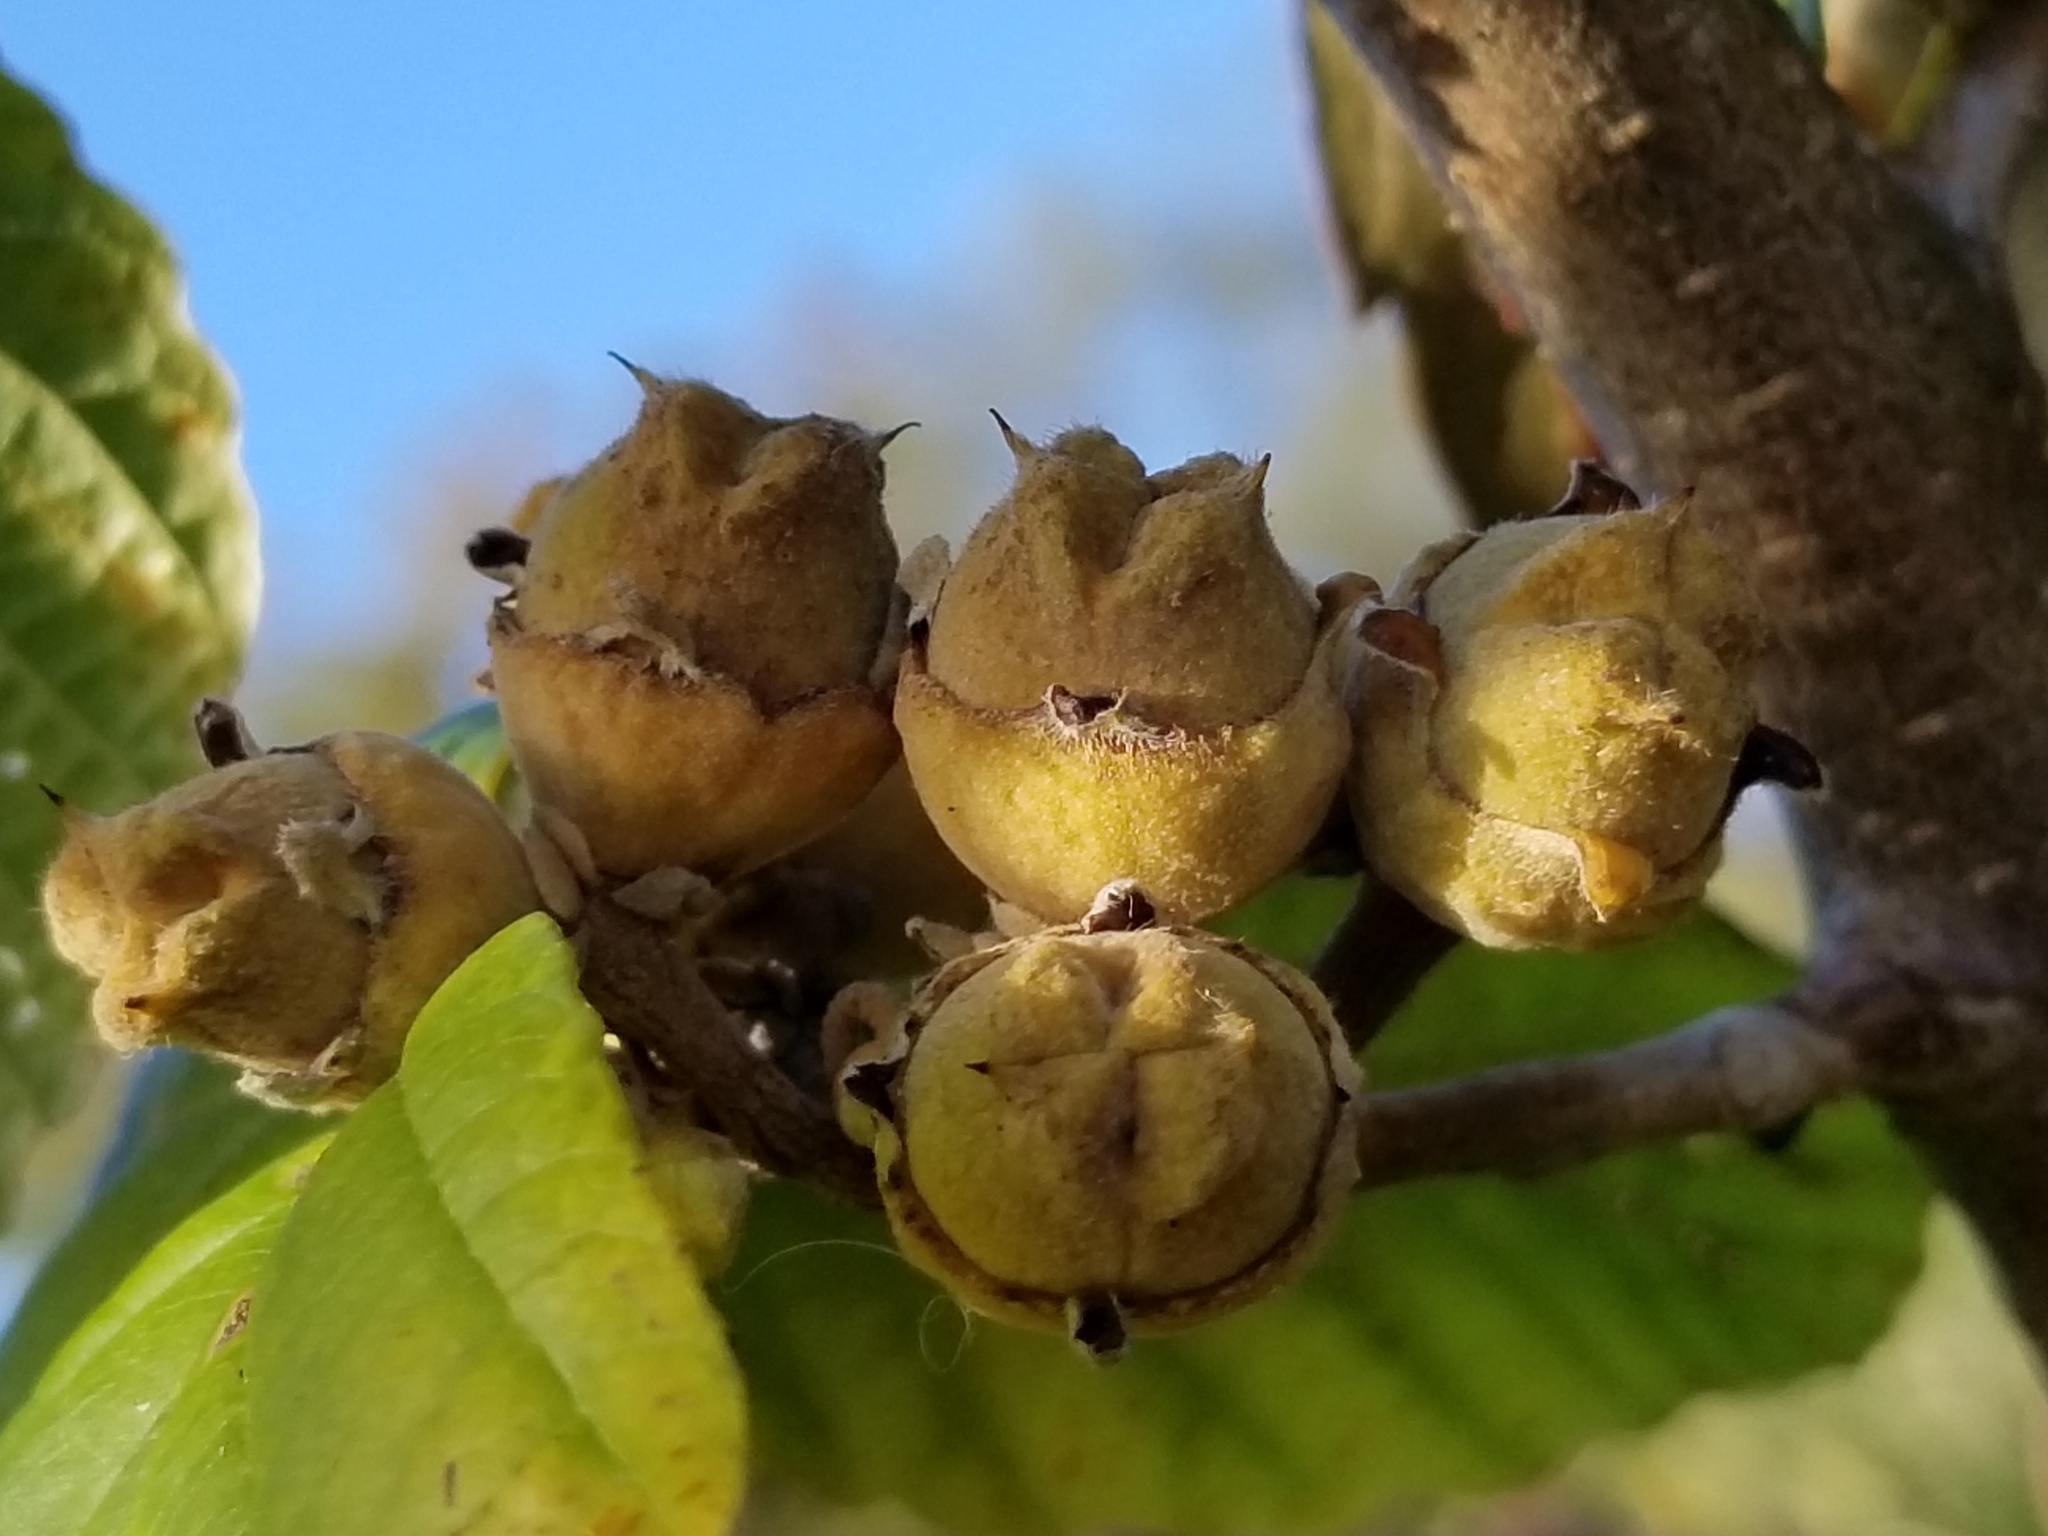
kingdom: Plantae
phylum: Tracheophyta
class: Magnoliopsida
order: Saxifragales
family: Hamamelidaceae
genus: Hamamelis
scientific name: Hamamelis virginiana
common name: Witch-hazel
